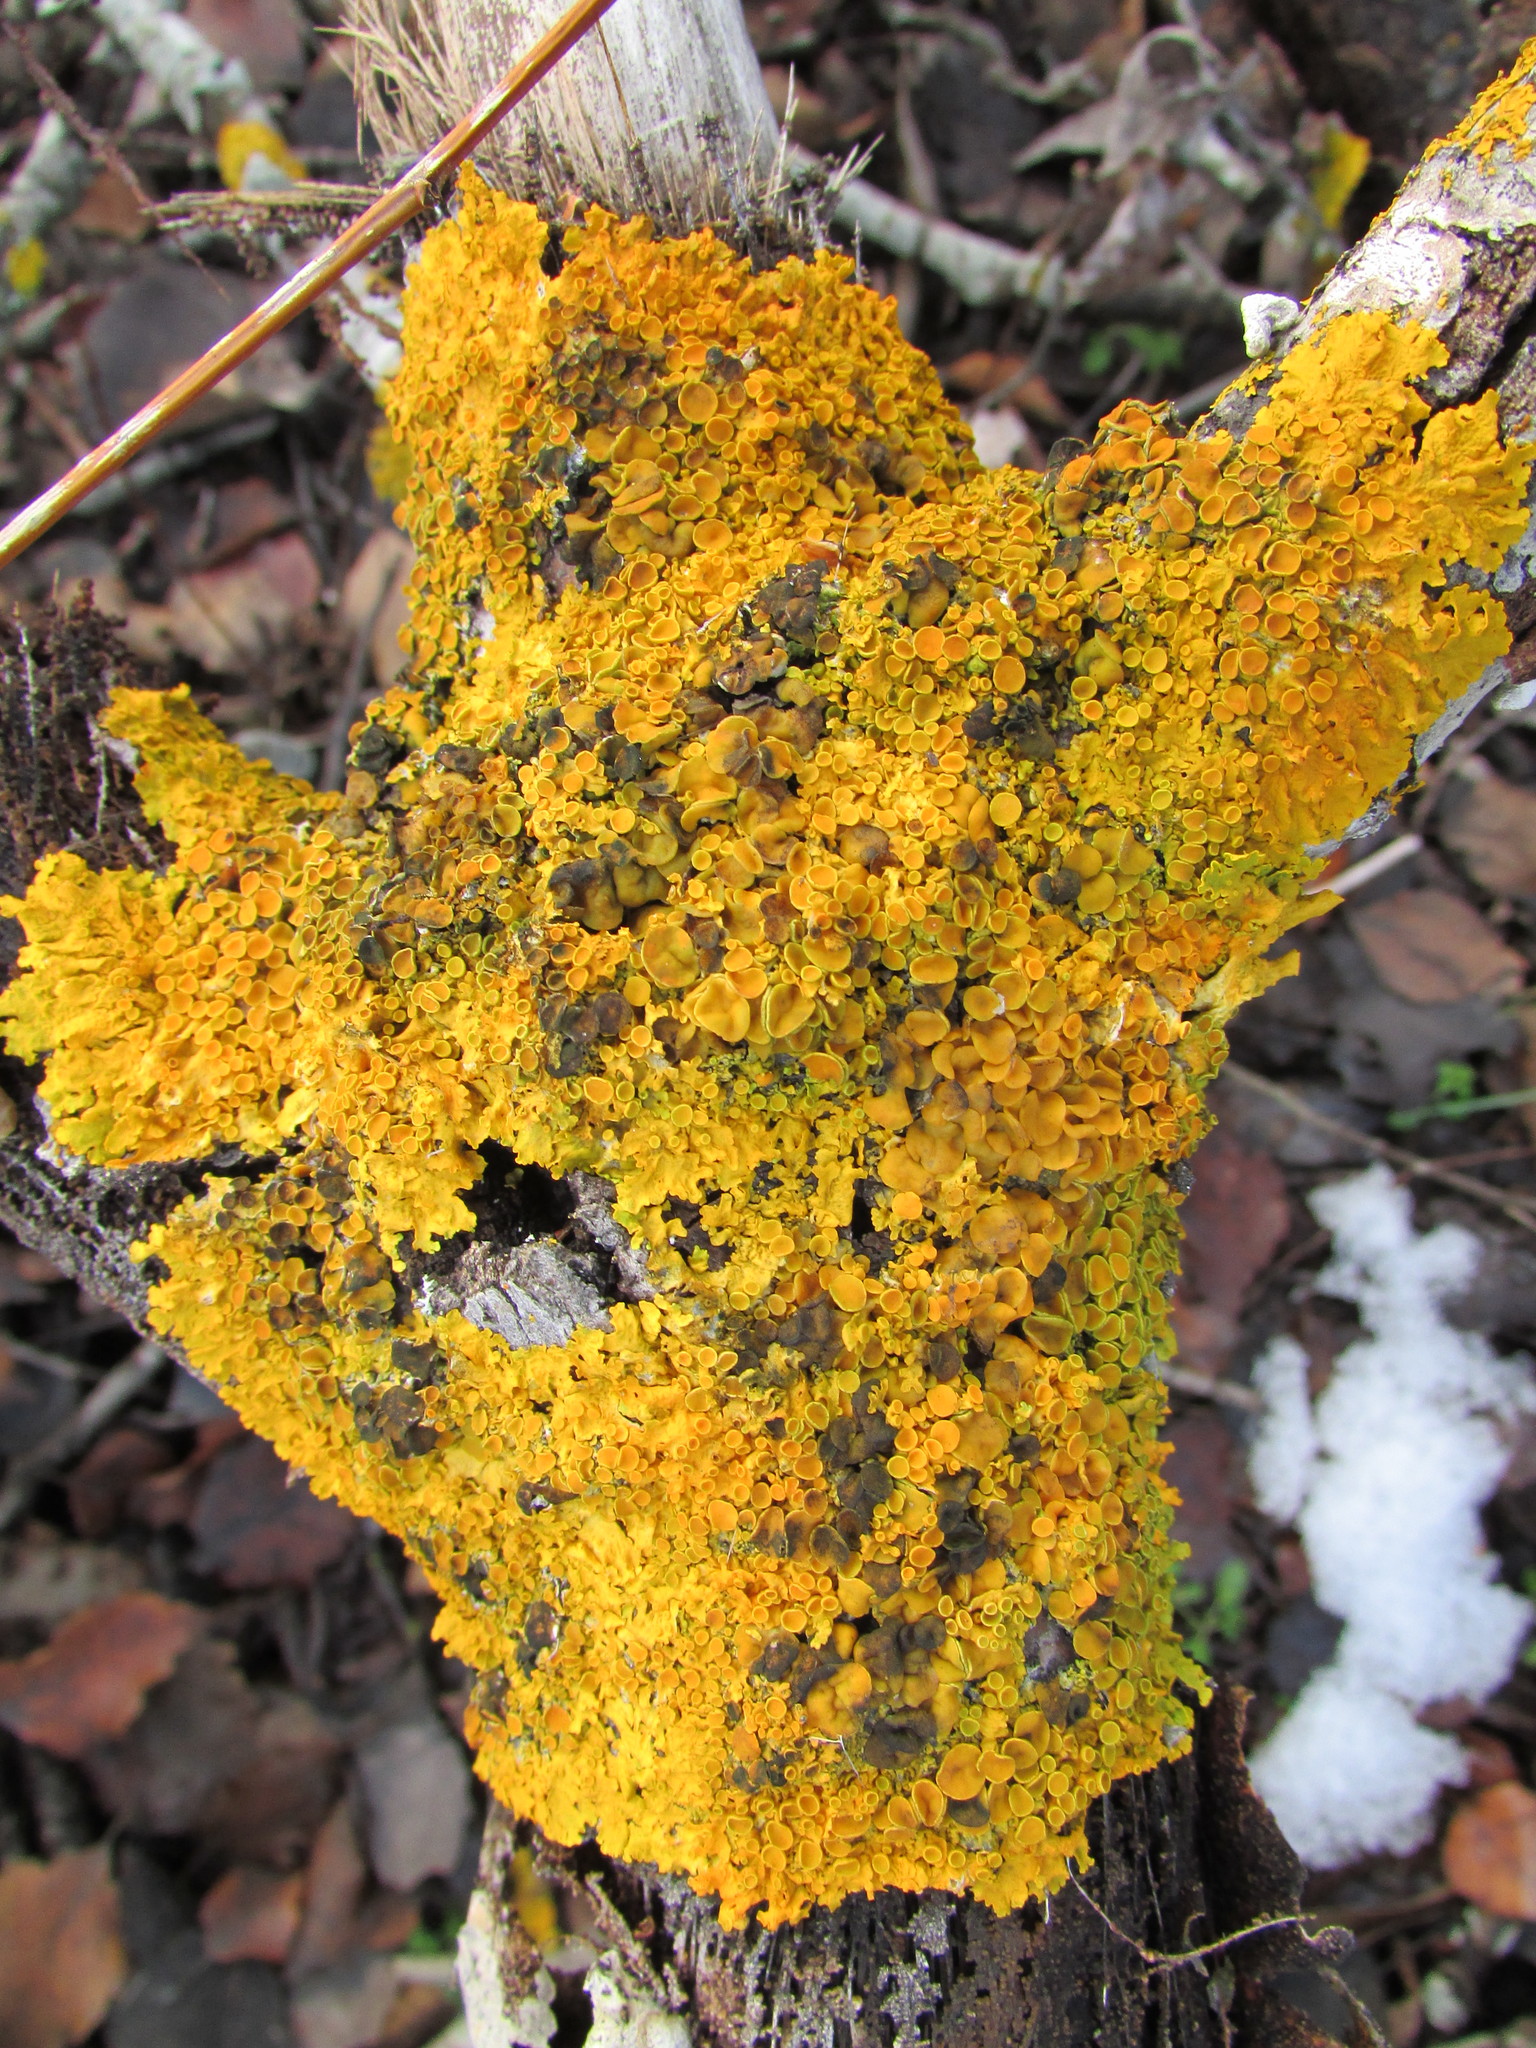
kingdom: Fungi
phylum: Ascomycota
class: Lecanoromycetes
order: Teloschistales
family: Teloschistaceae
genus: Xanthoria
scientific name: Xanthoria parietina
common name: Common orange lichen
